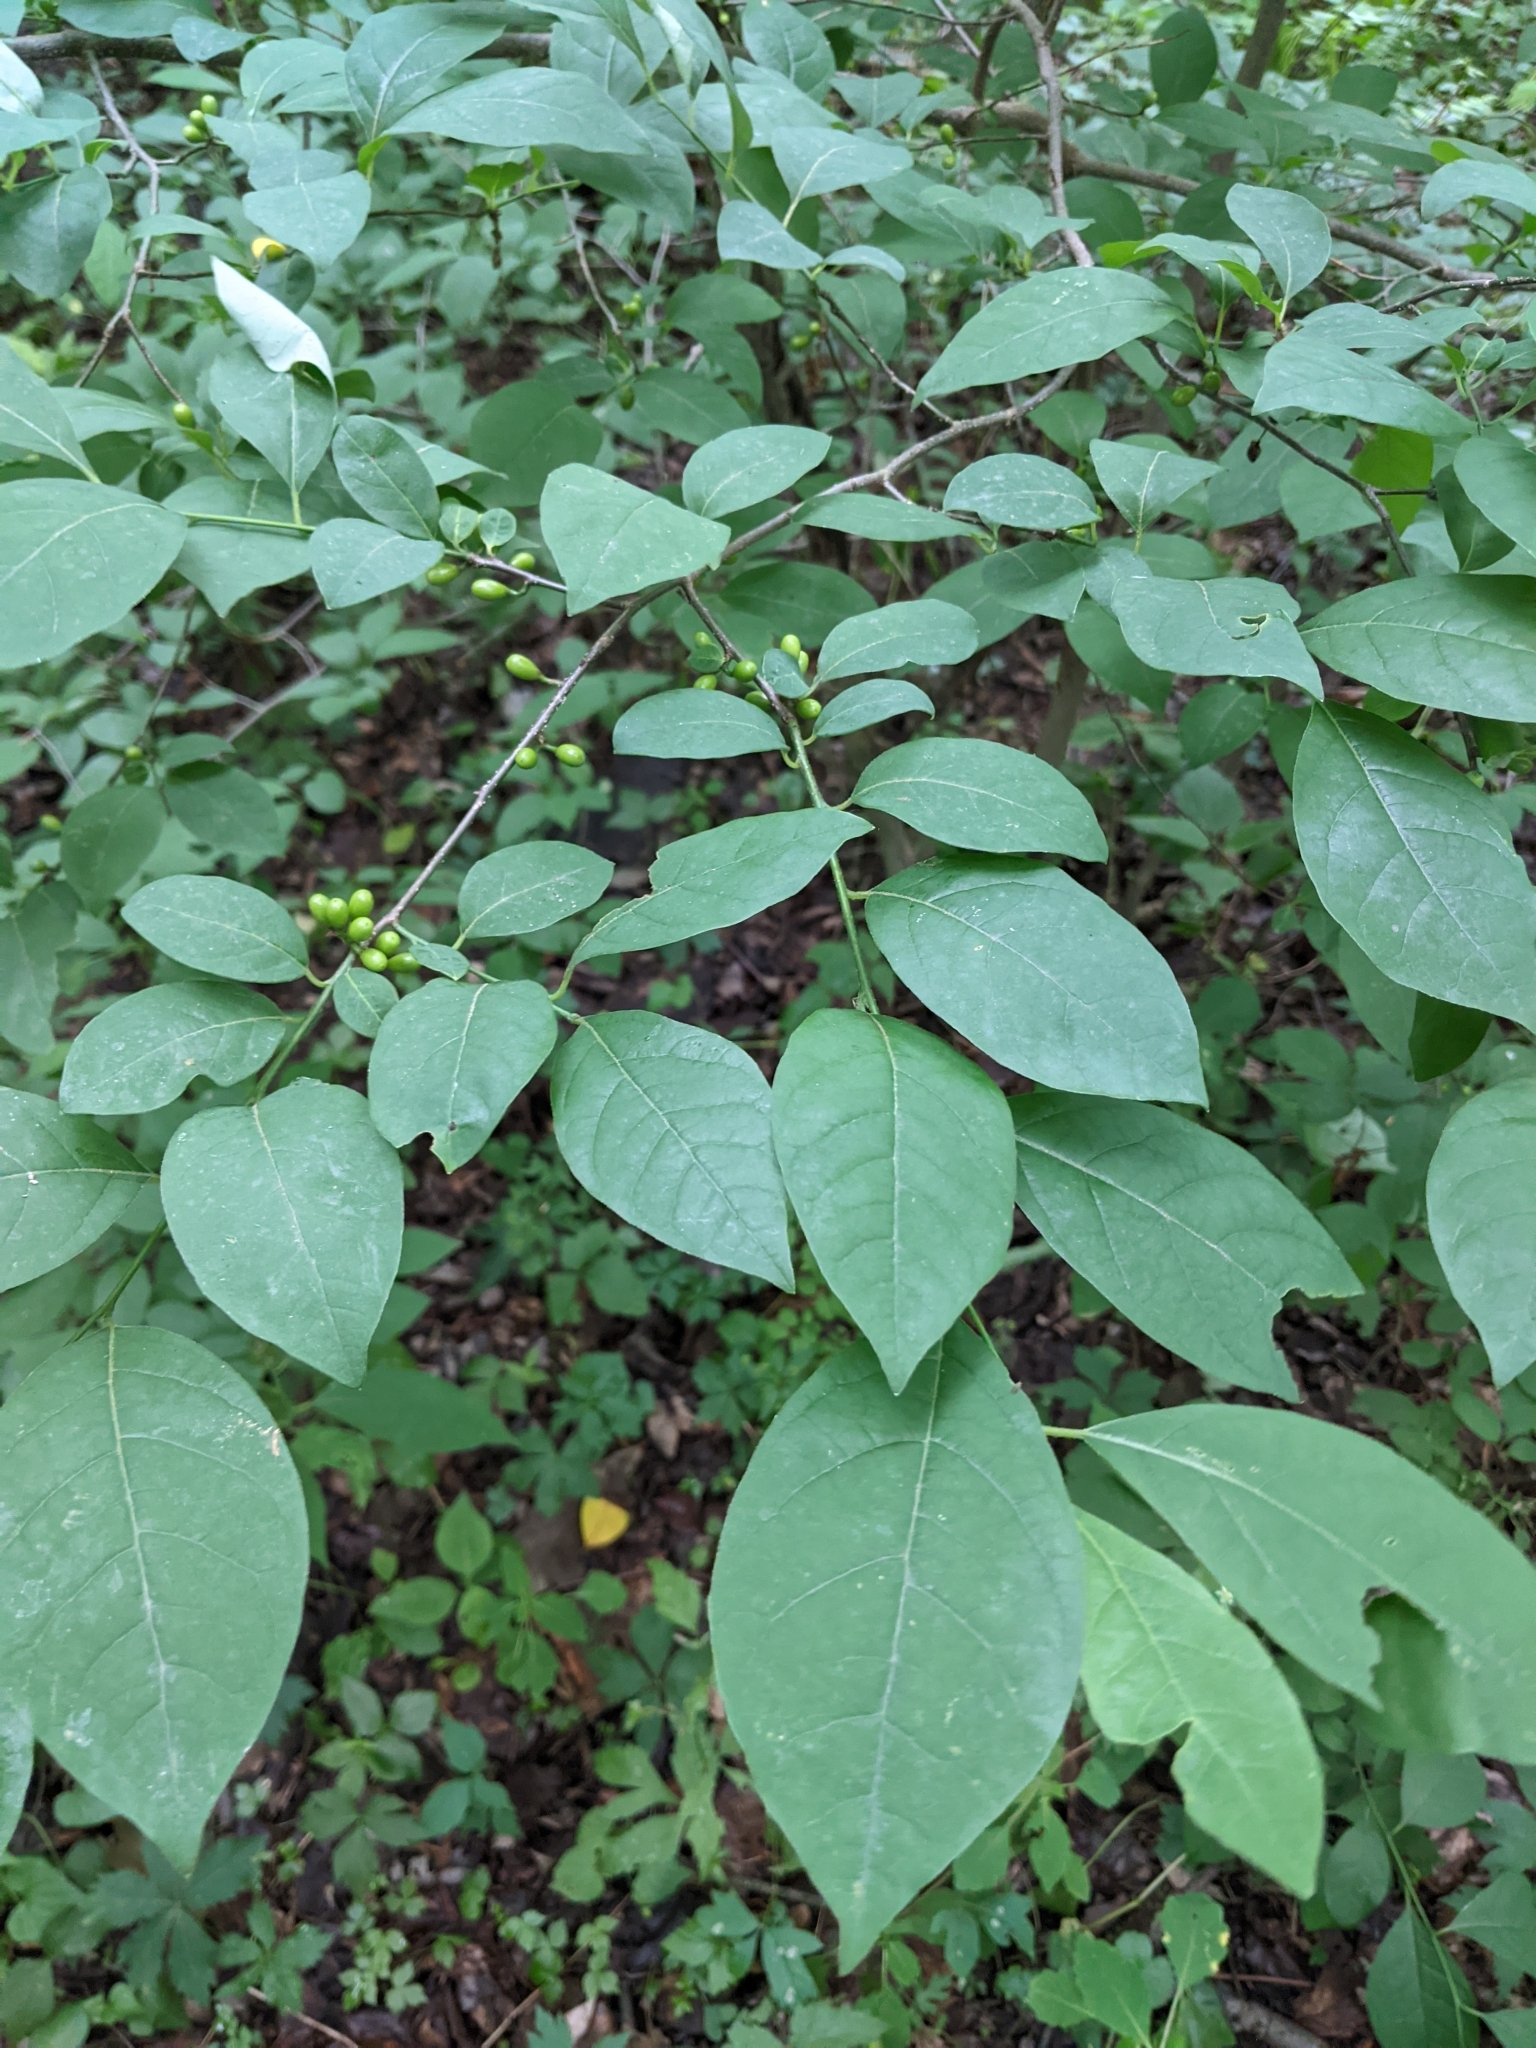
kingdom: Plantae
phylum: Tracheophyta
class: Magnoliopsida
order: Laurales
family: Lauraceae
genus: Lindera
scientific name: Lindera benzoin
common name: Spicebush
